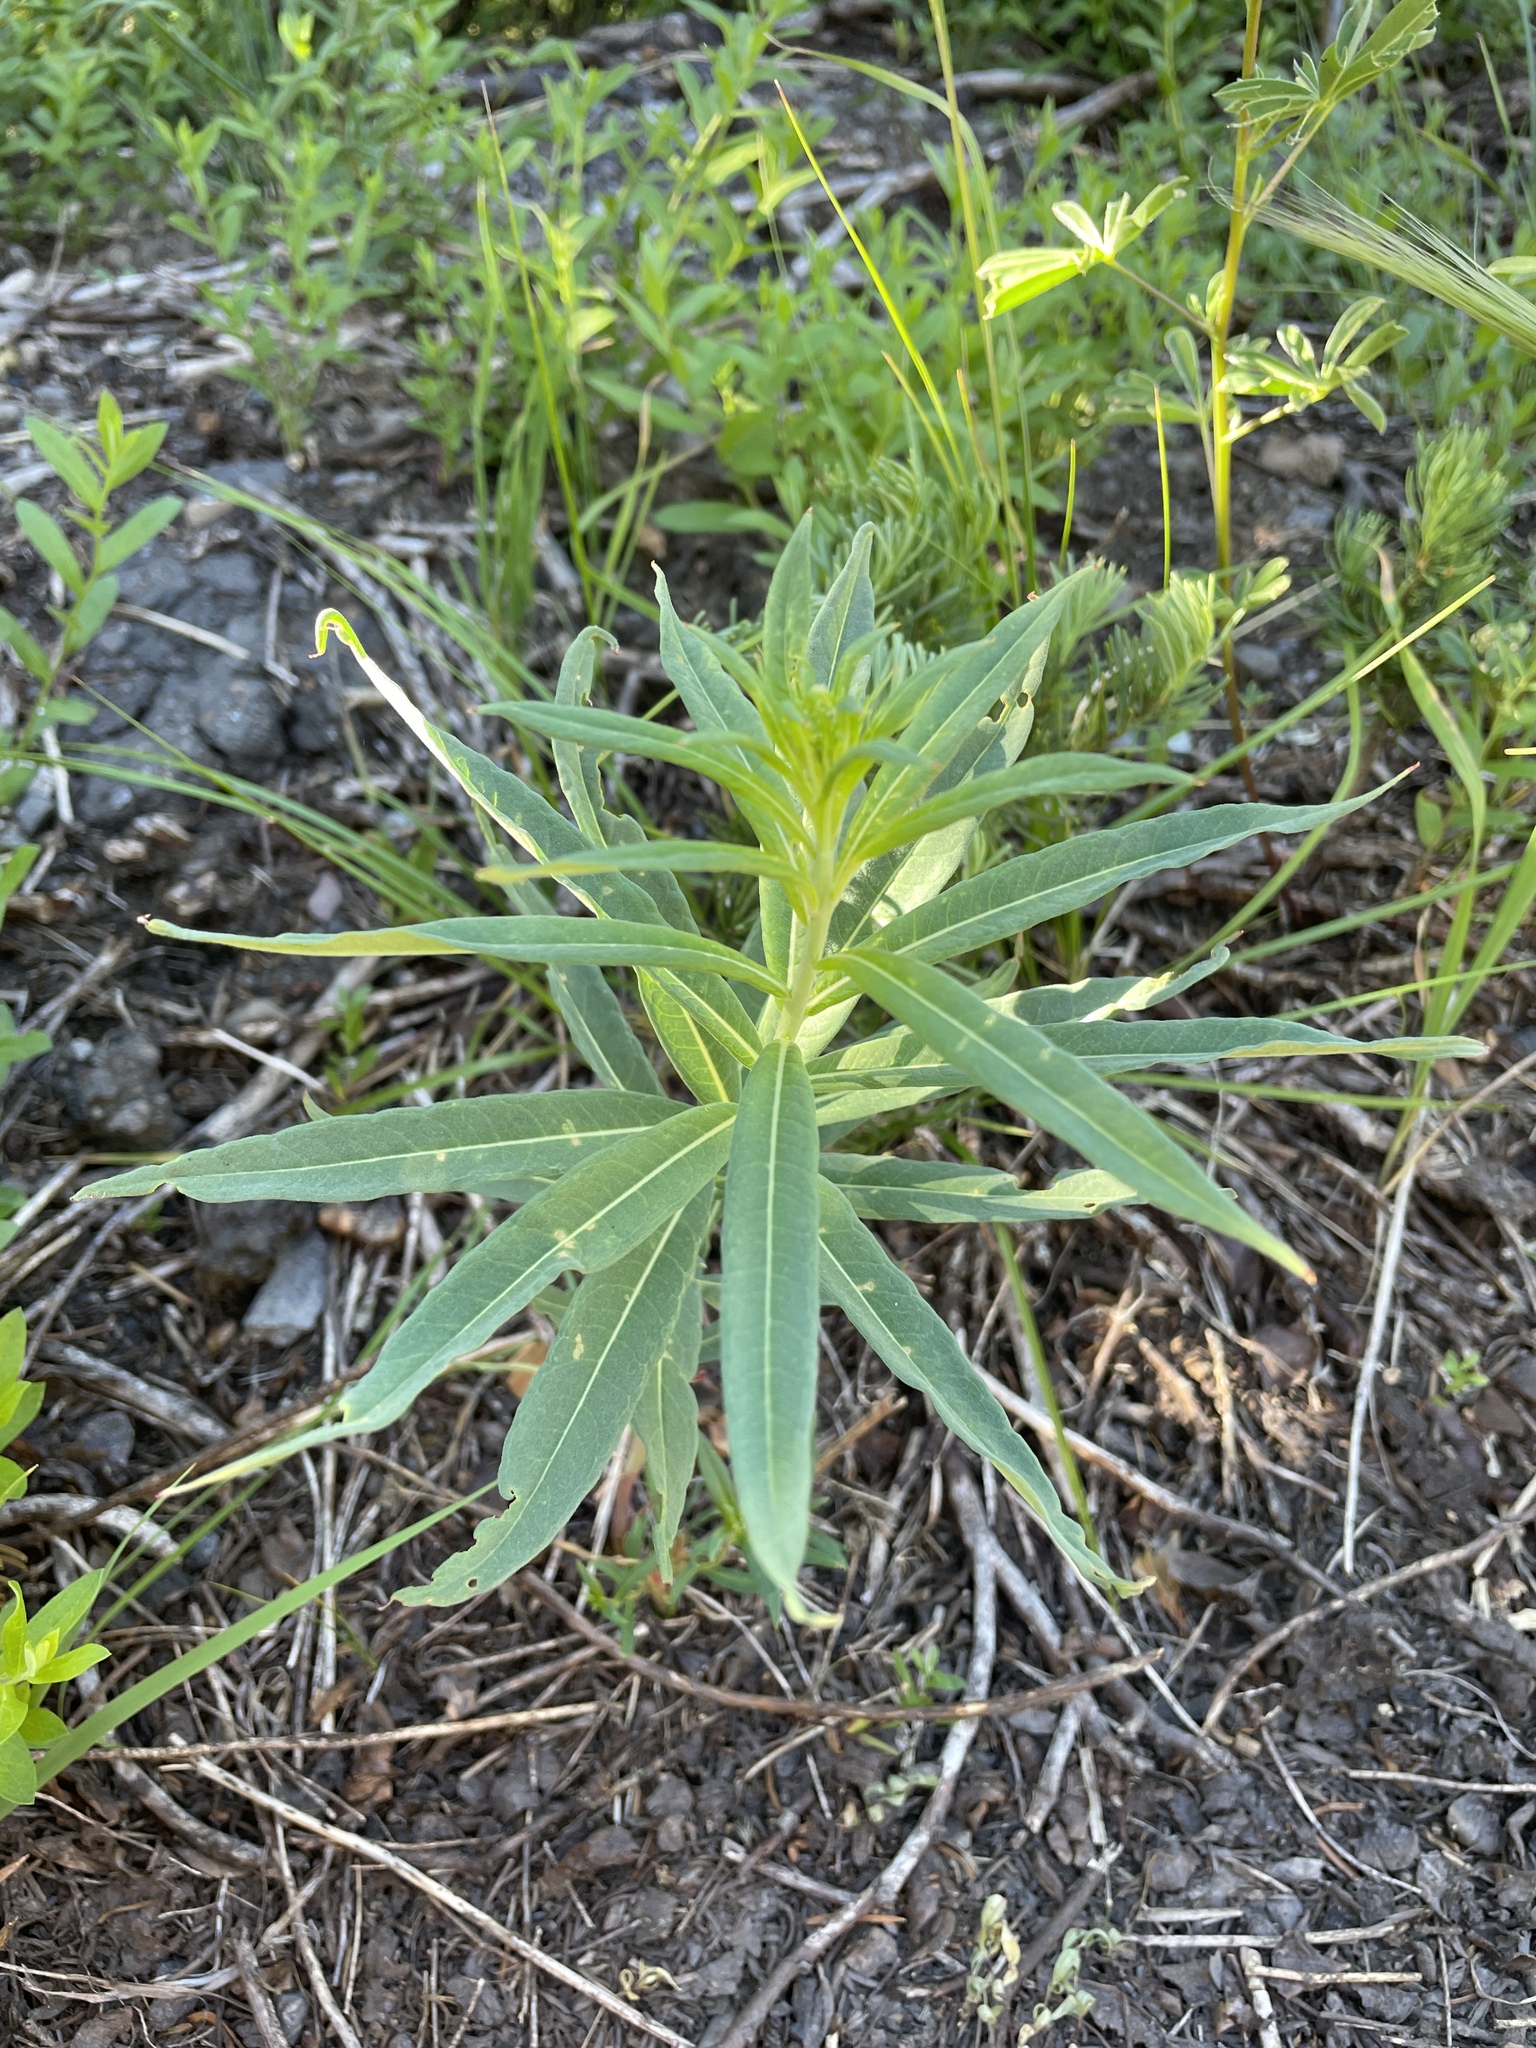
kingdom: Plantae
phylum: Tracheophyta
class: Magnoliopsida
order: Myrtales
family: Onagraceae
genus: Chamaenerion
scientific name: Chamaenerion angustifolium
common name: Fireweed
